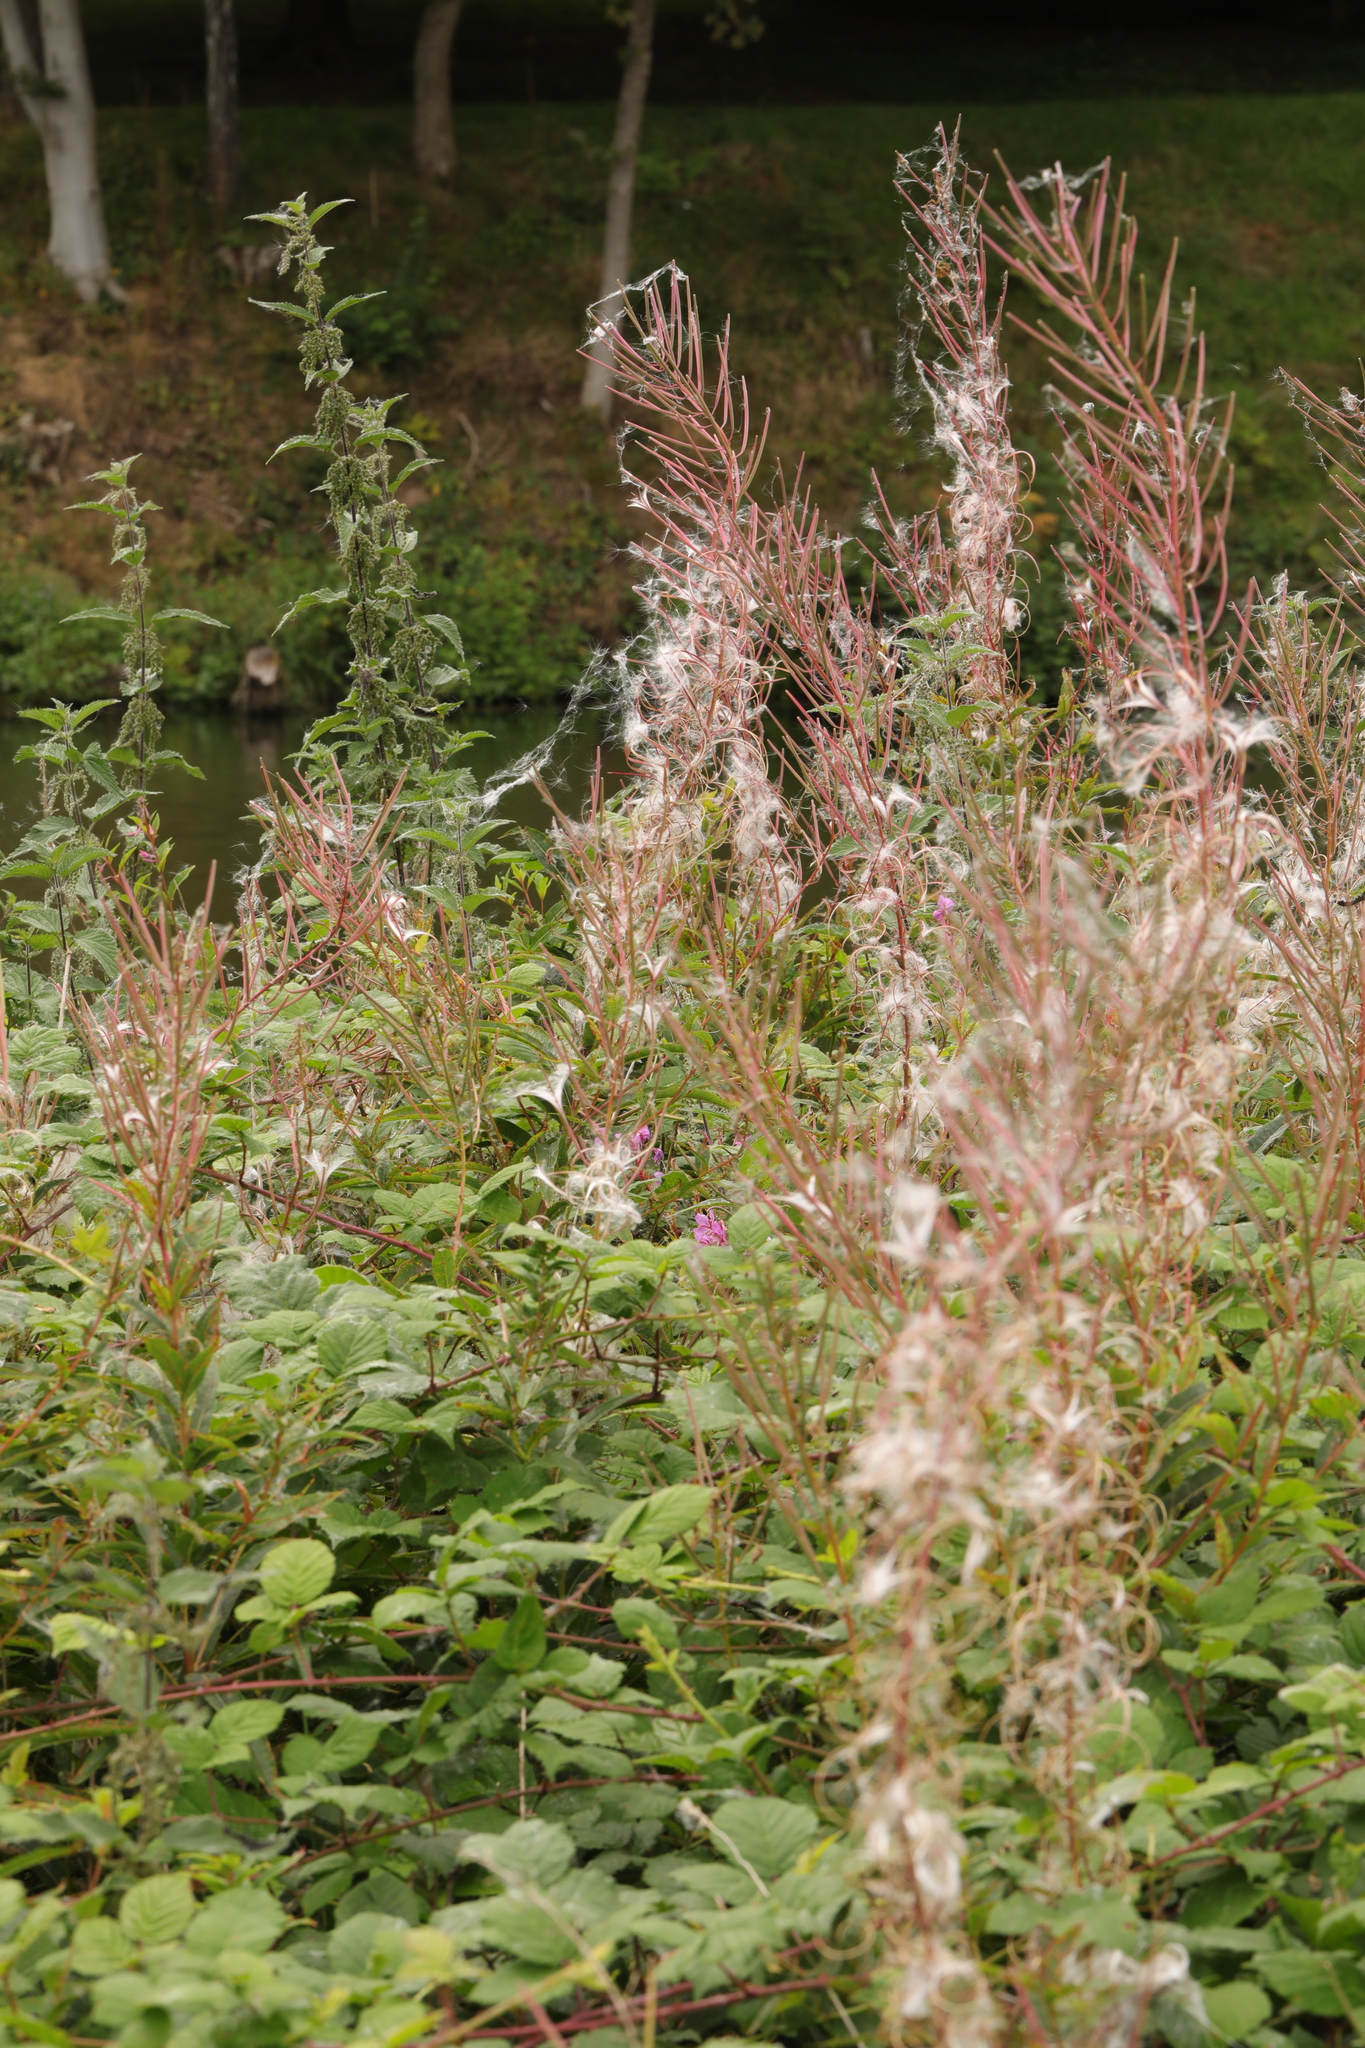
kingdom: Plantae
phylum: Tracheophyta
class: Magnoliopsida
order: Myrtales
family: Onagraceae
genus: Chamaenerion
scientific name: Chamaenerion angustifolium
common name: Fireweed
